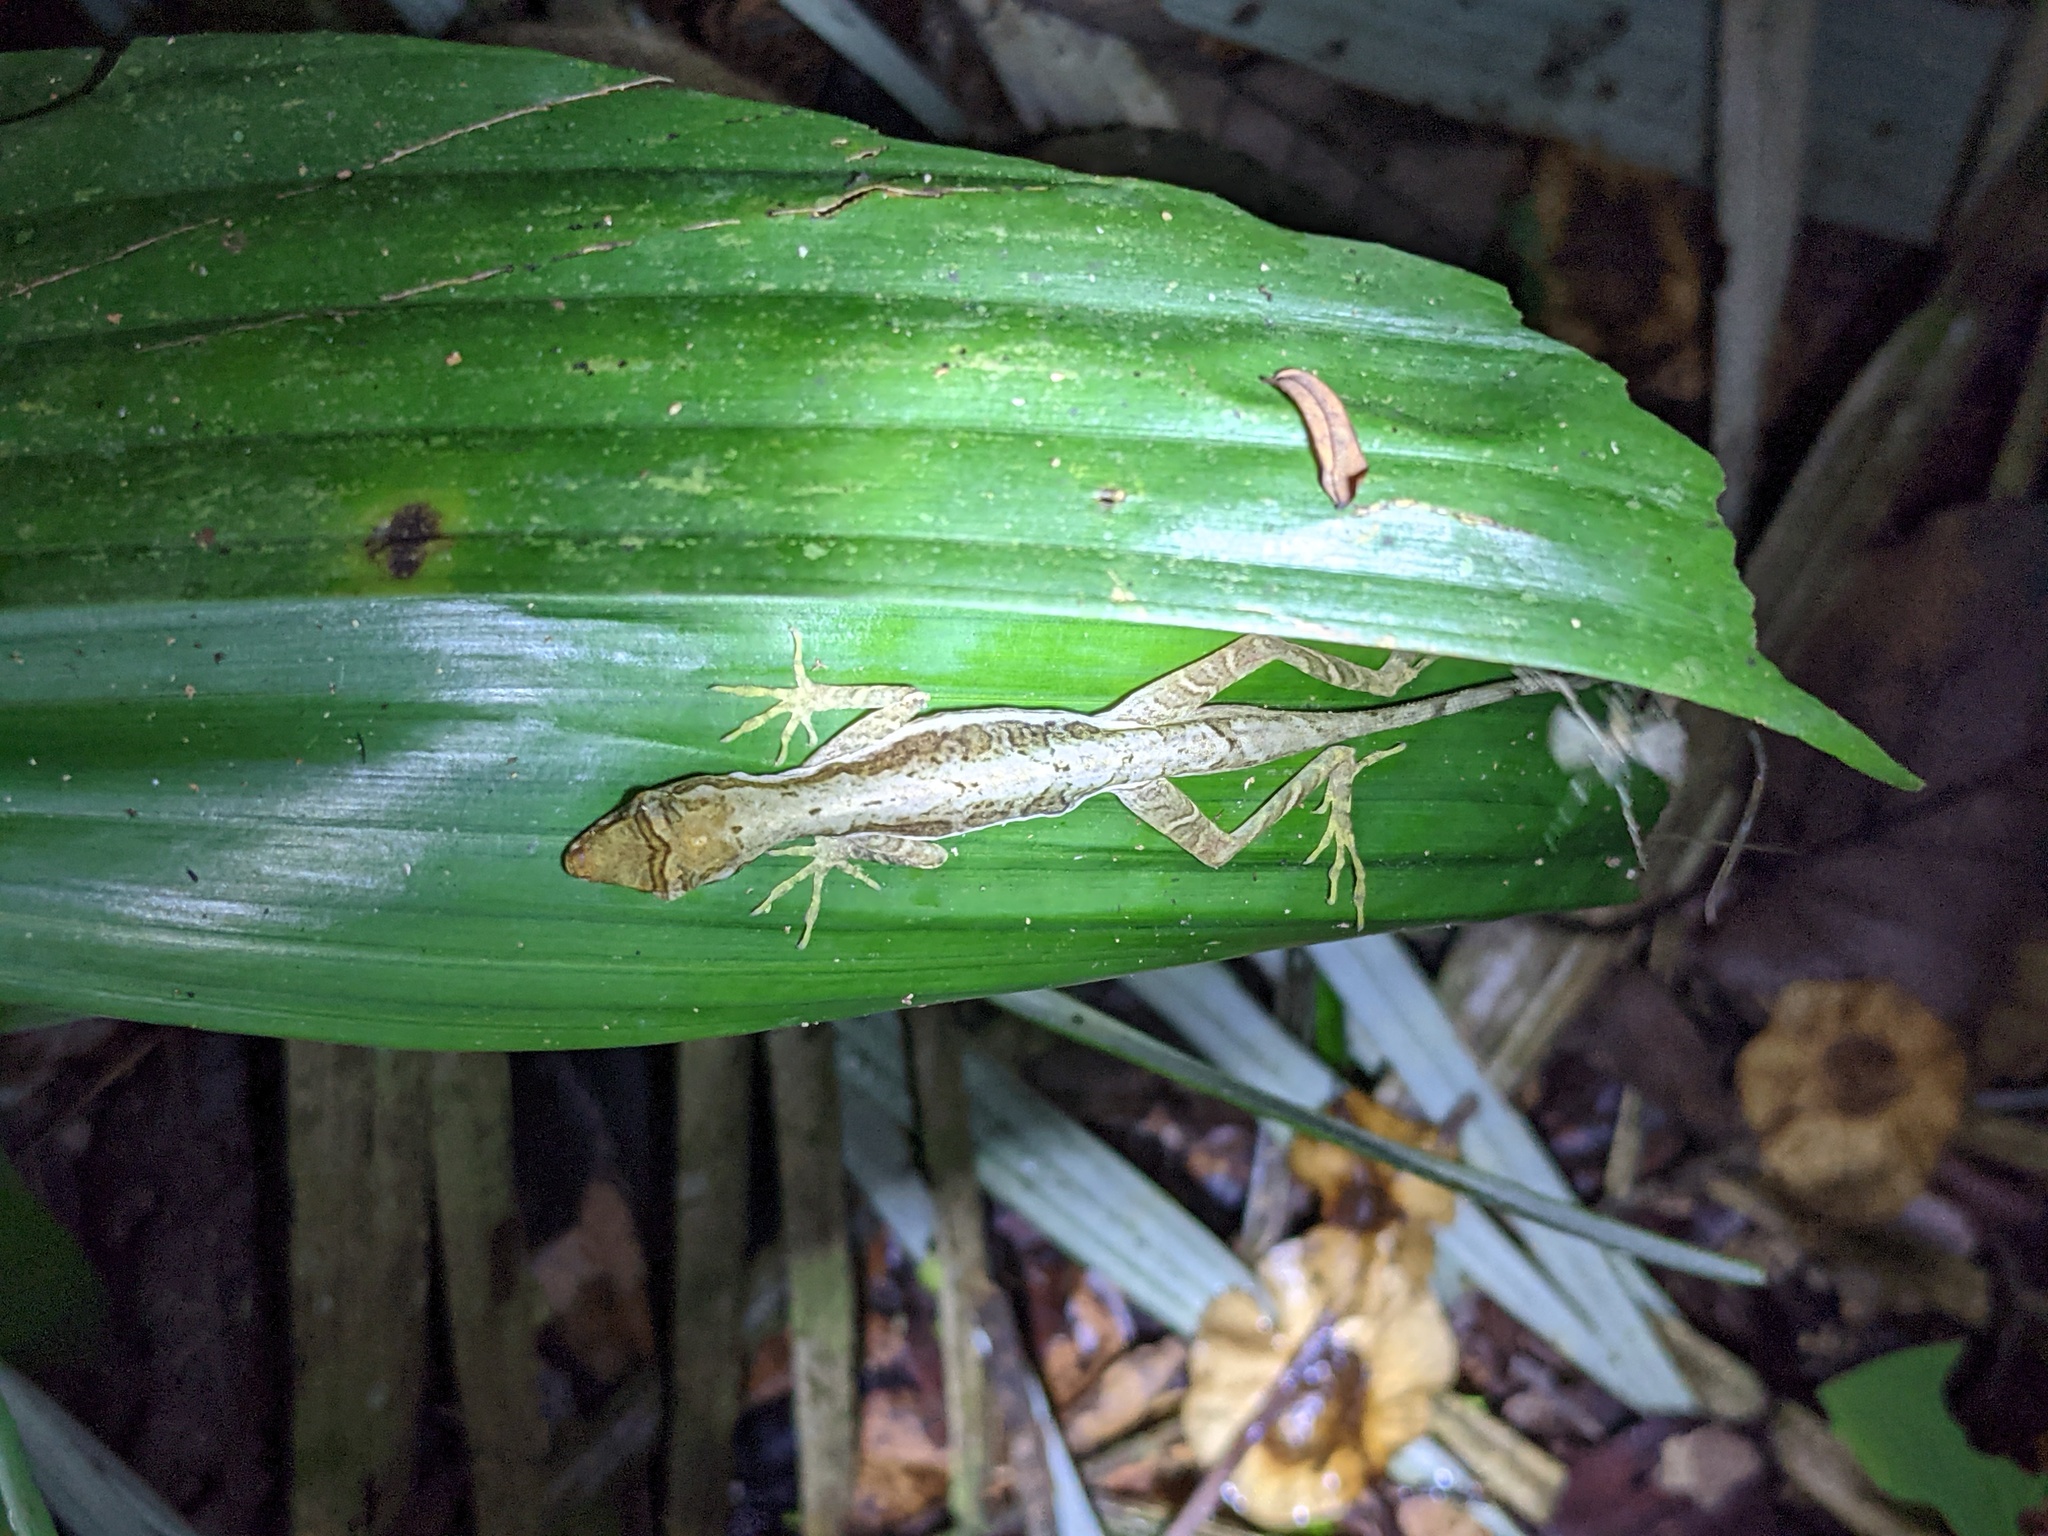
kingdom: Animalia
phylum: Chordata
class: Squamata
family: Dactyloidae
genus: Anolis
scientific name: Anolis trachyderma
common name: Common forest anole
